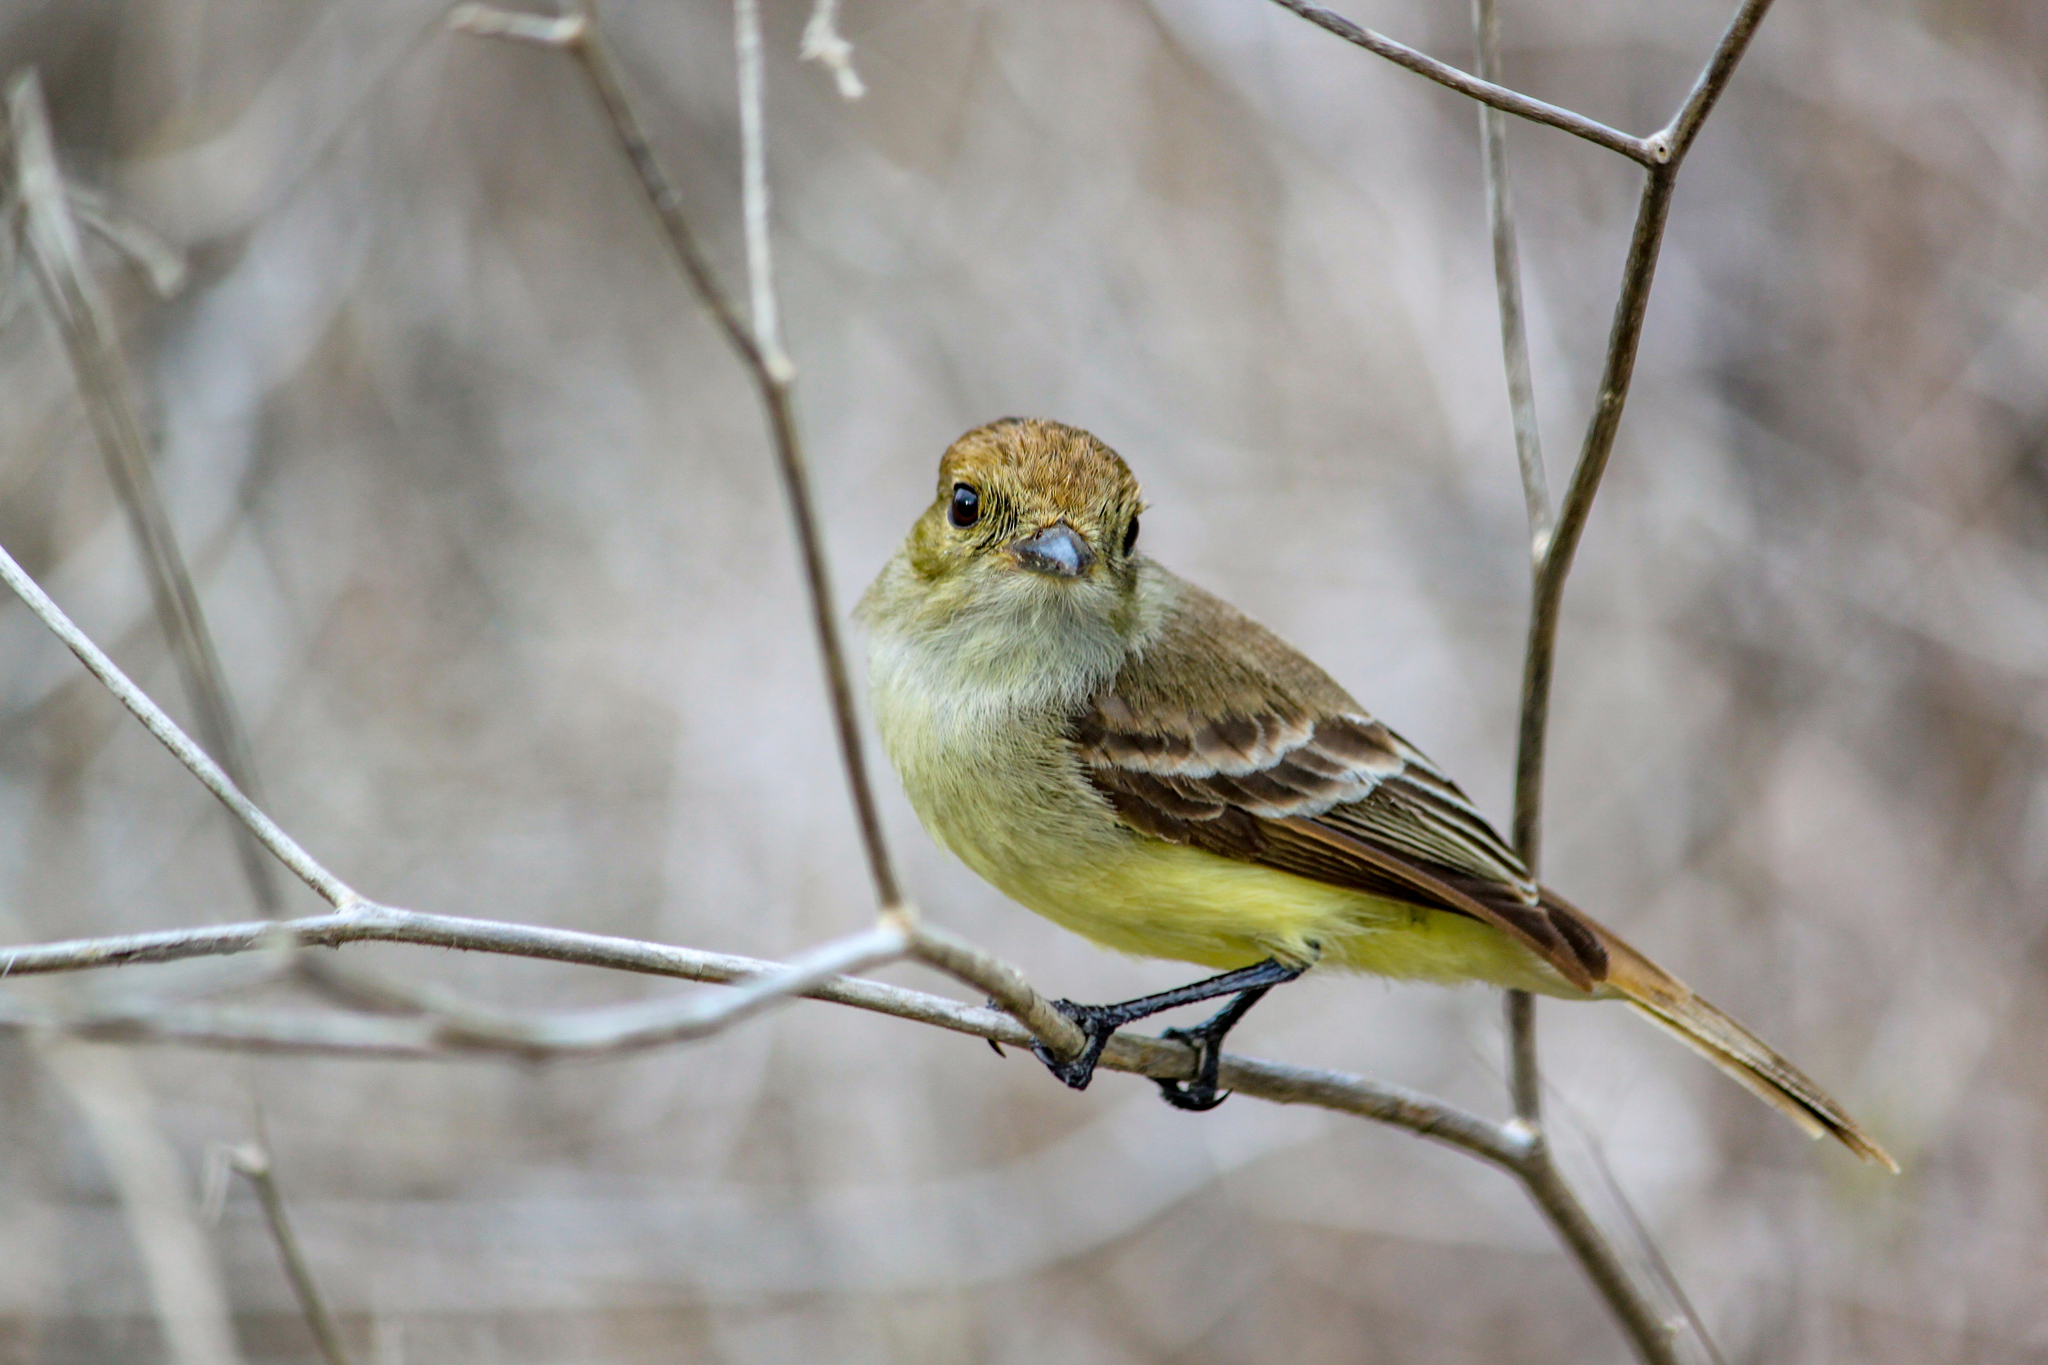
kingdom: Animalia
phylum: Chordata
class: Aves
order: Passeriformes
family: Tyrannidae
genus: Myiarchus
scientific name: Myiarchus magnirostris
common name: Galapagos flycatcher
